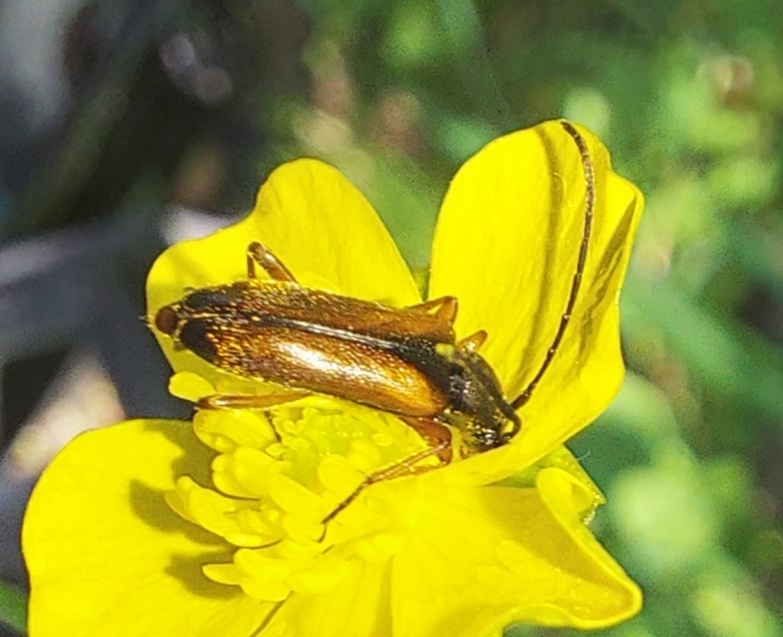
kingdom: Animalia
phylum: Arthropoda
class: Insecta
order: Coleoptera
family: Cerambycidae
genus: Pseudovadonia
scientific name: Pseudovadonia livida
